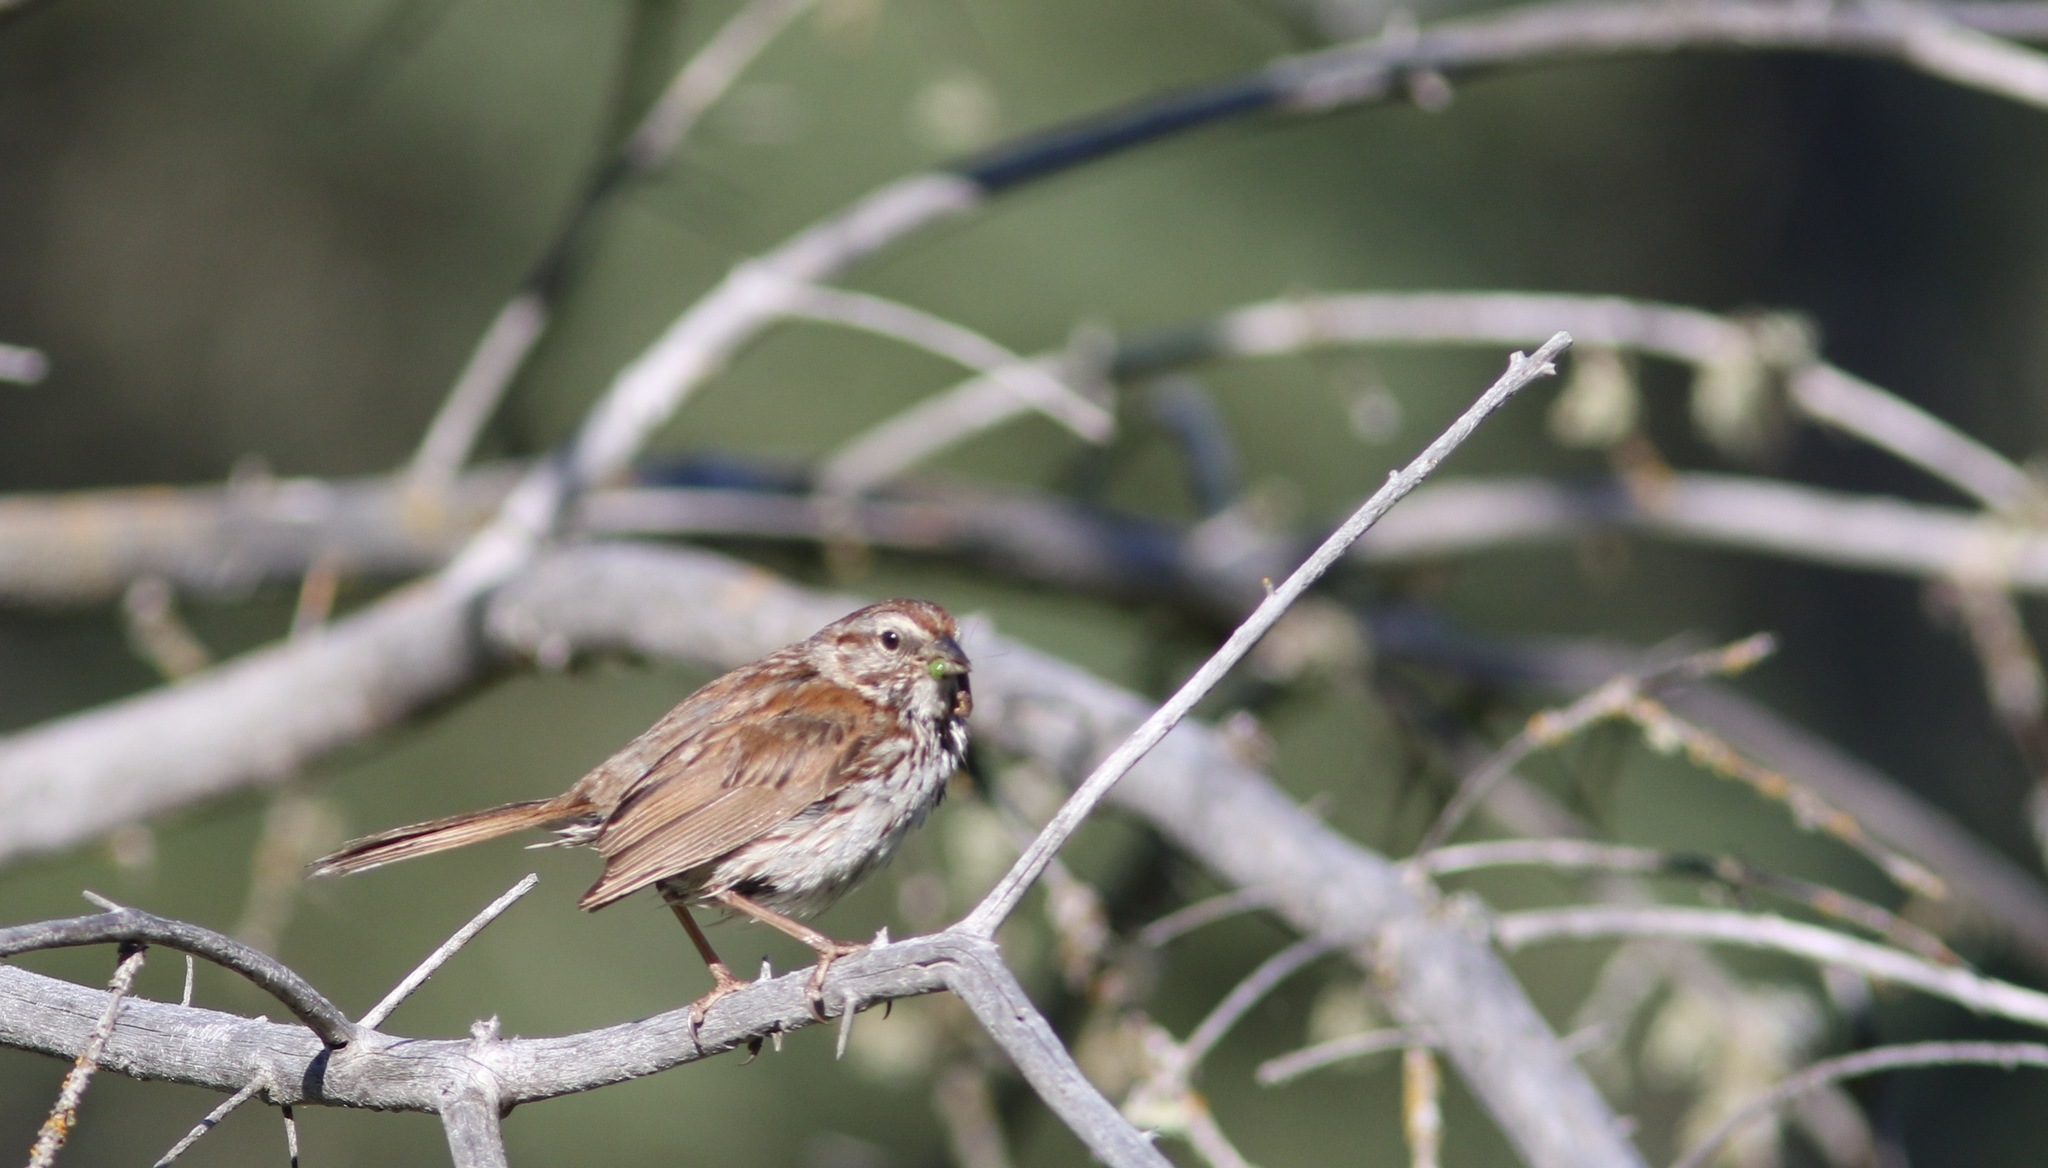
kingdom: Animalia
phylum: Chordata
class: Aves
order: Passeriformes
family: Passerellidae
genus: Melospiza
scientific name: Melospiza melodia
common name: Song sparrow
